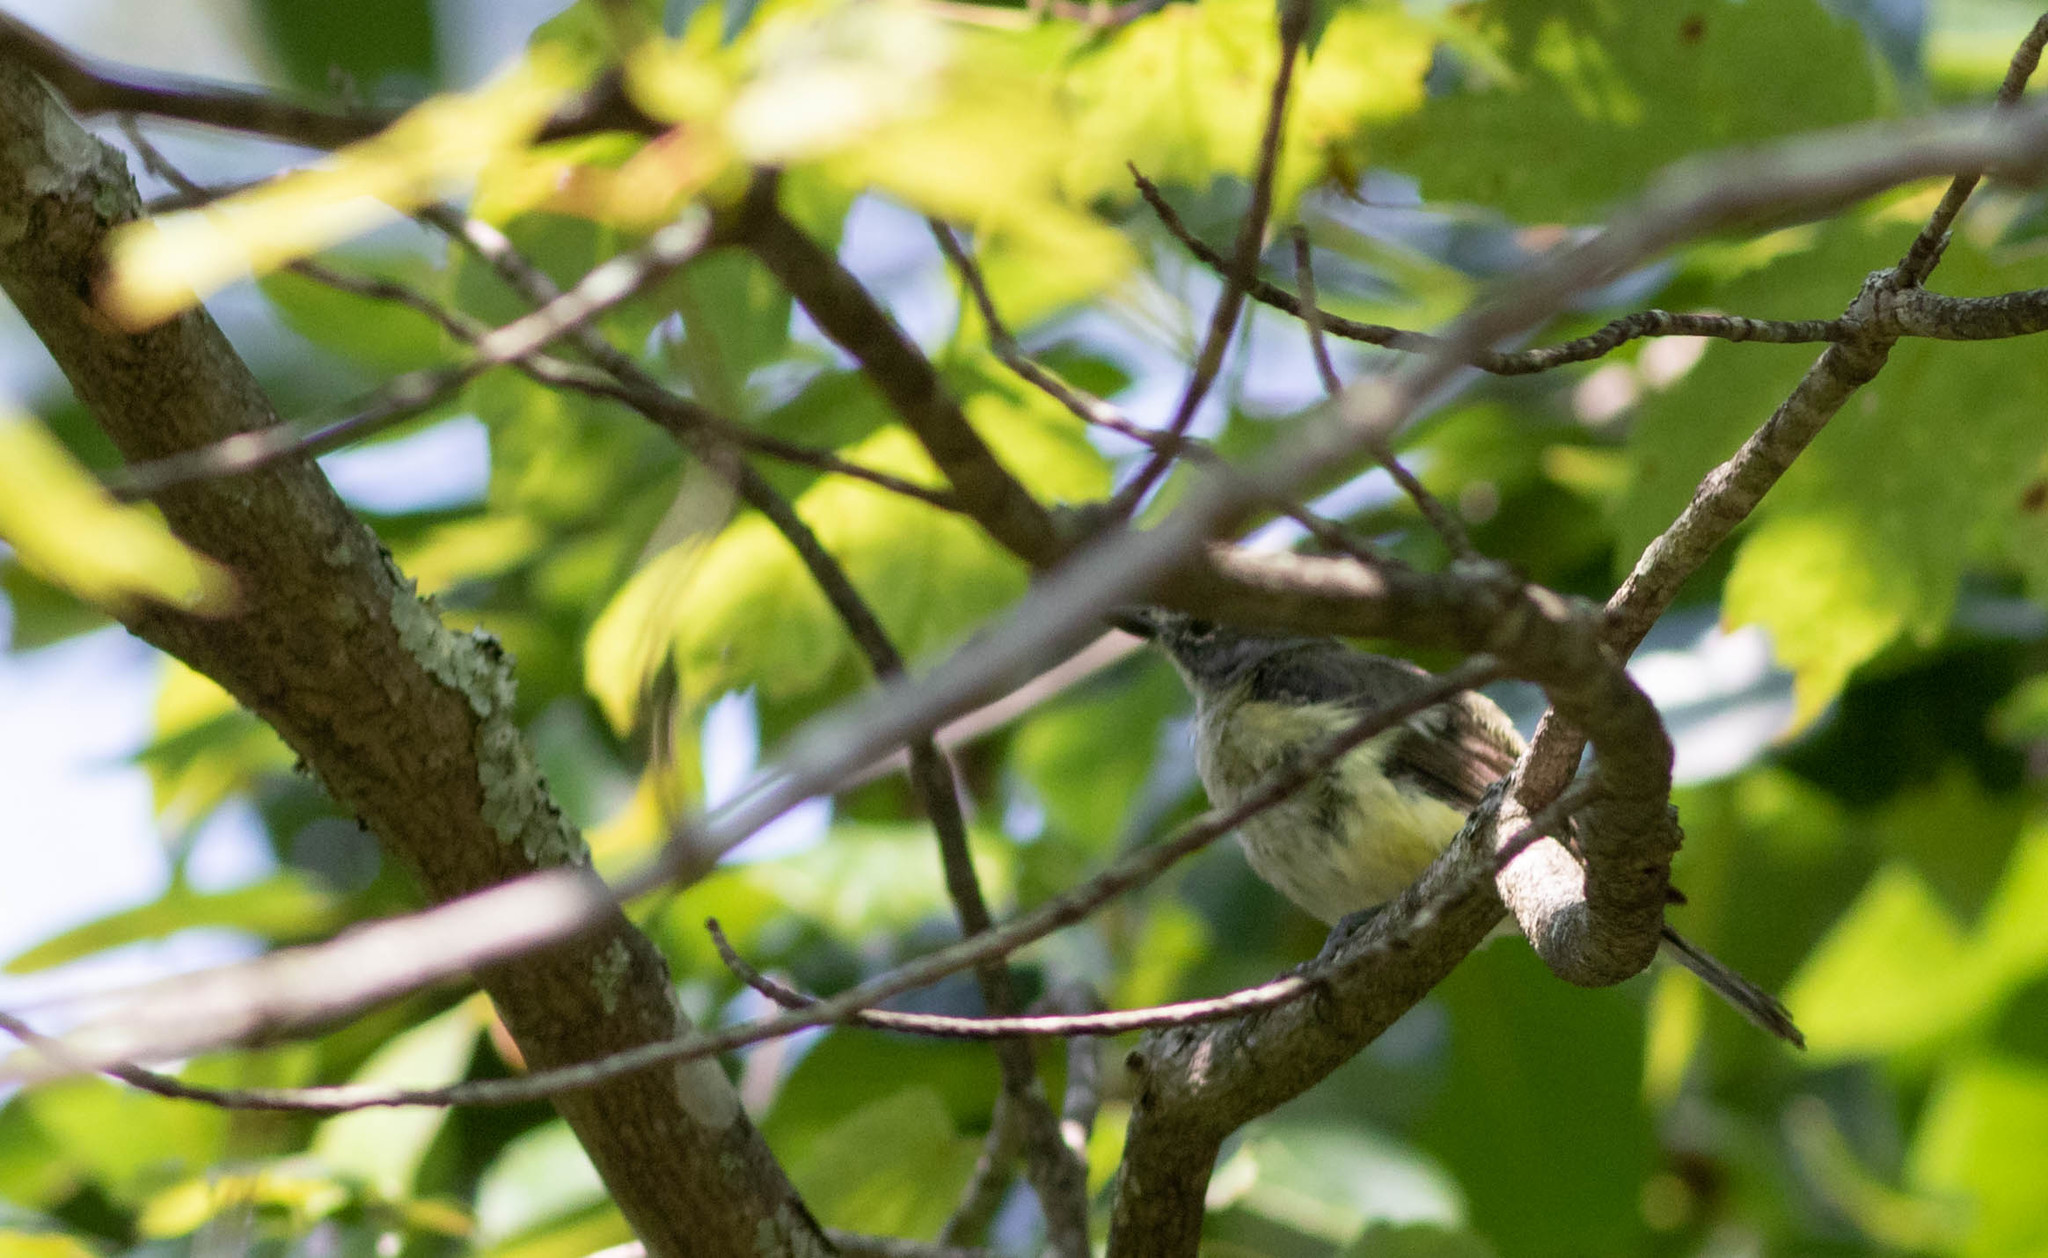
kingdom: Animalia
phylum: Chordata
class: Aves
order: Passeriformes
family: Vireonidae
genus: Vireo
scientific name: Vireo solitarius
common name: Blue-headed vireo
